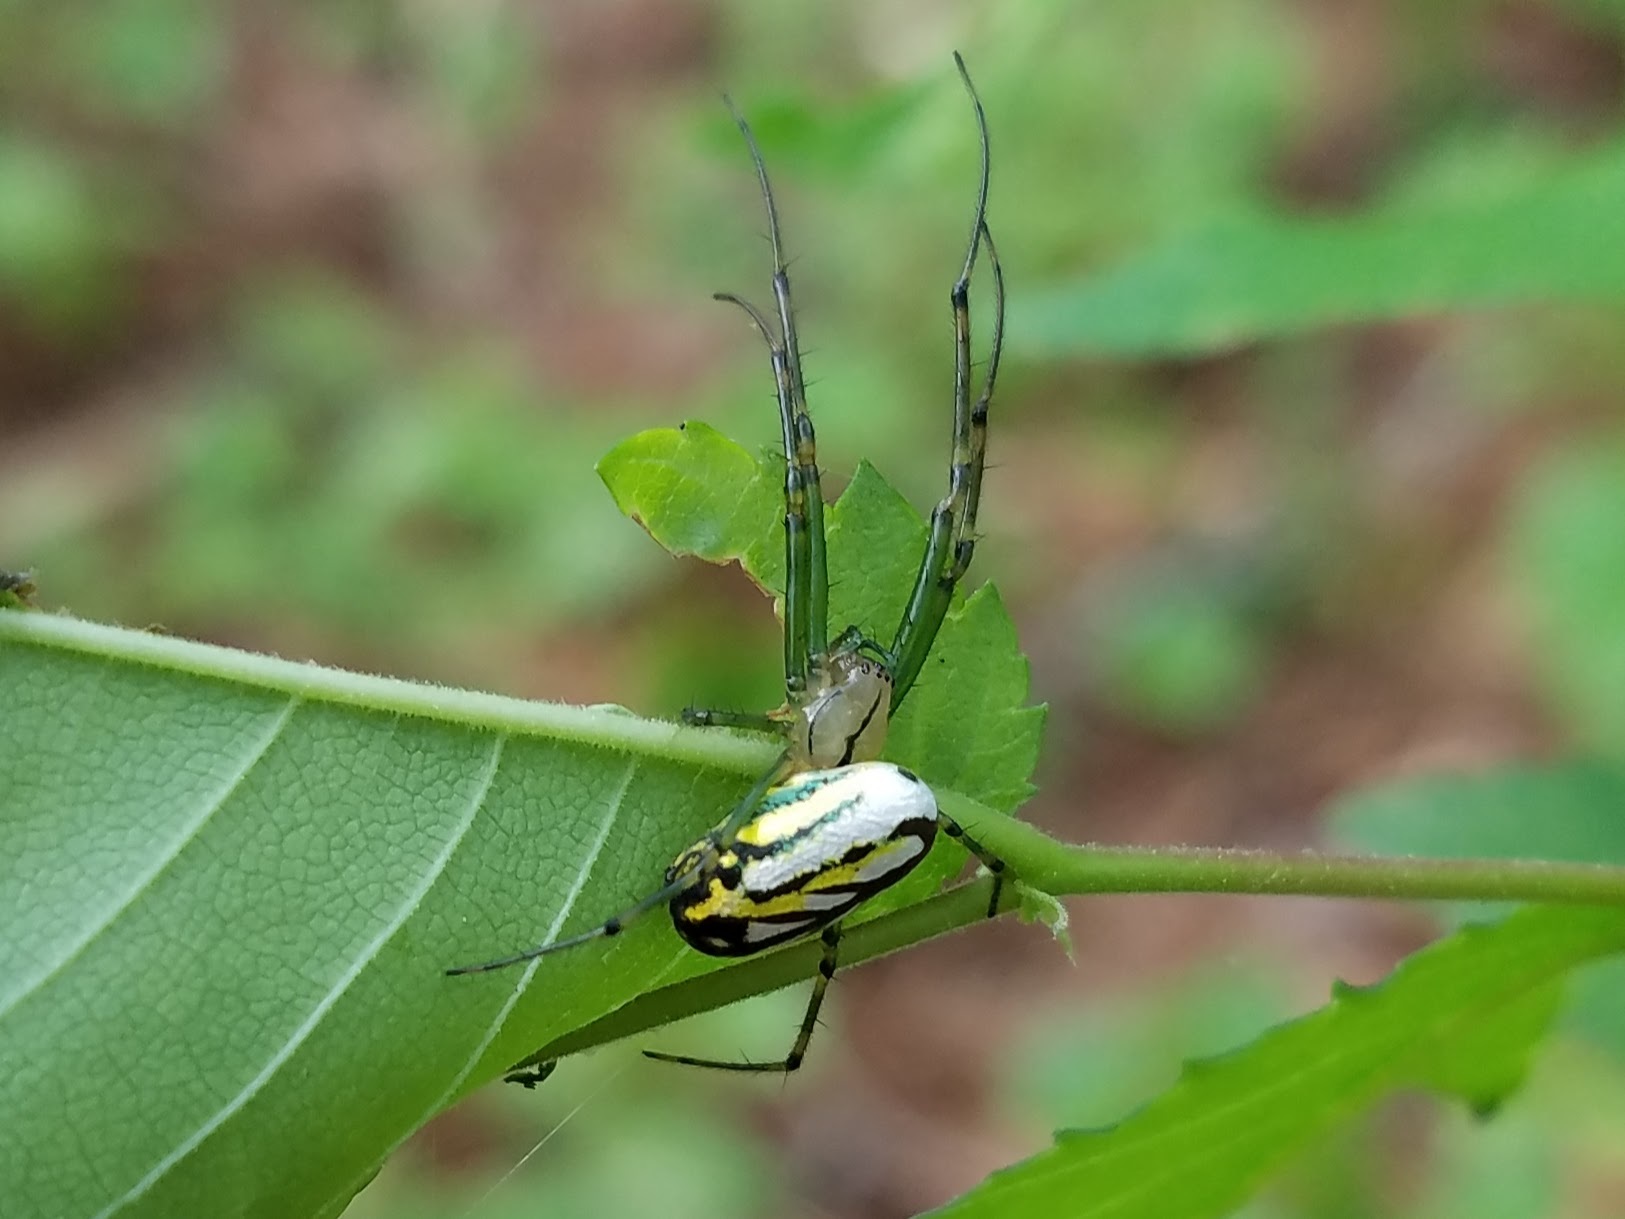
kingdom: Animalia
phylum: Arthropoda
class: Arachnida
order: Araneae
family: Tetragnathidae
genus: Leucauge
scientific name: Leucauge venusta
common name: Longjawed orb weavers
